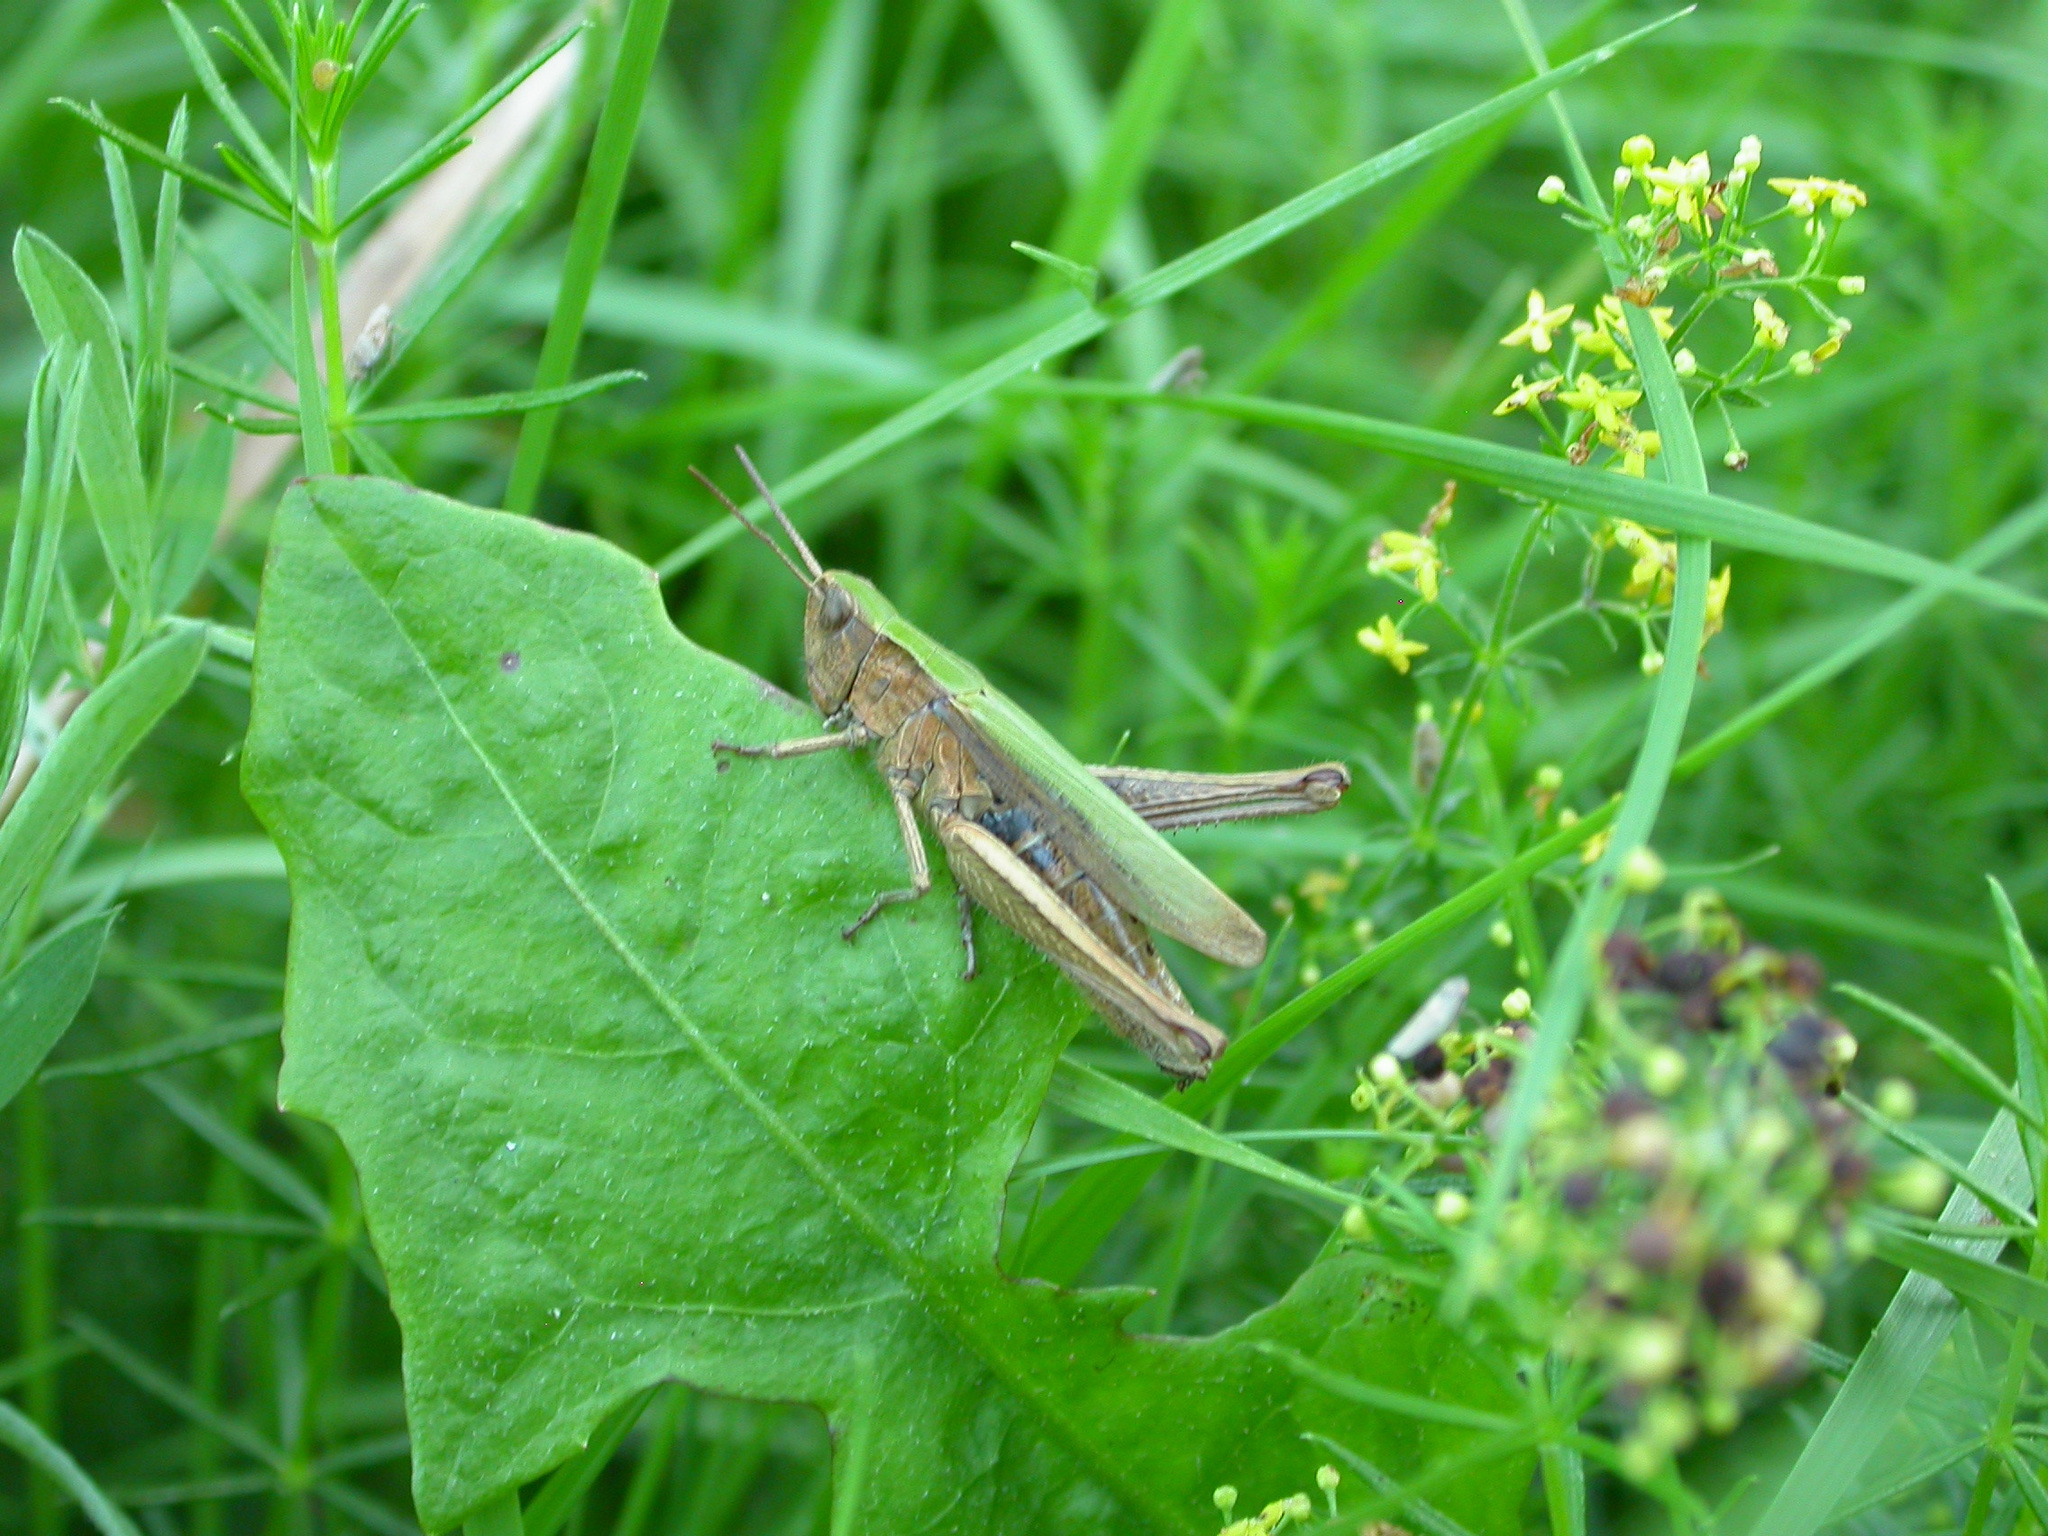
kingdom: Animalia
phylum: Arthropoda
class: Insecta
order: Orthoptera
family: Acrididae
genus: Chorthippus
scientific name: Chorthippus dorsatus
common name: Steppe grasshopper
